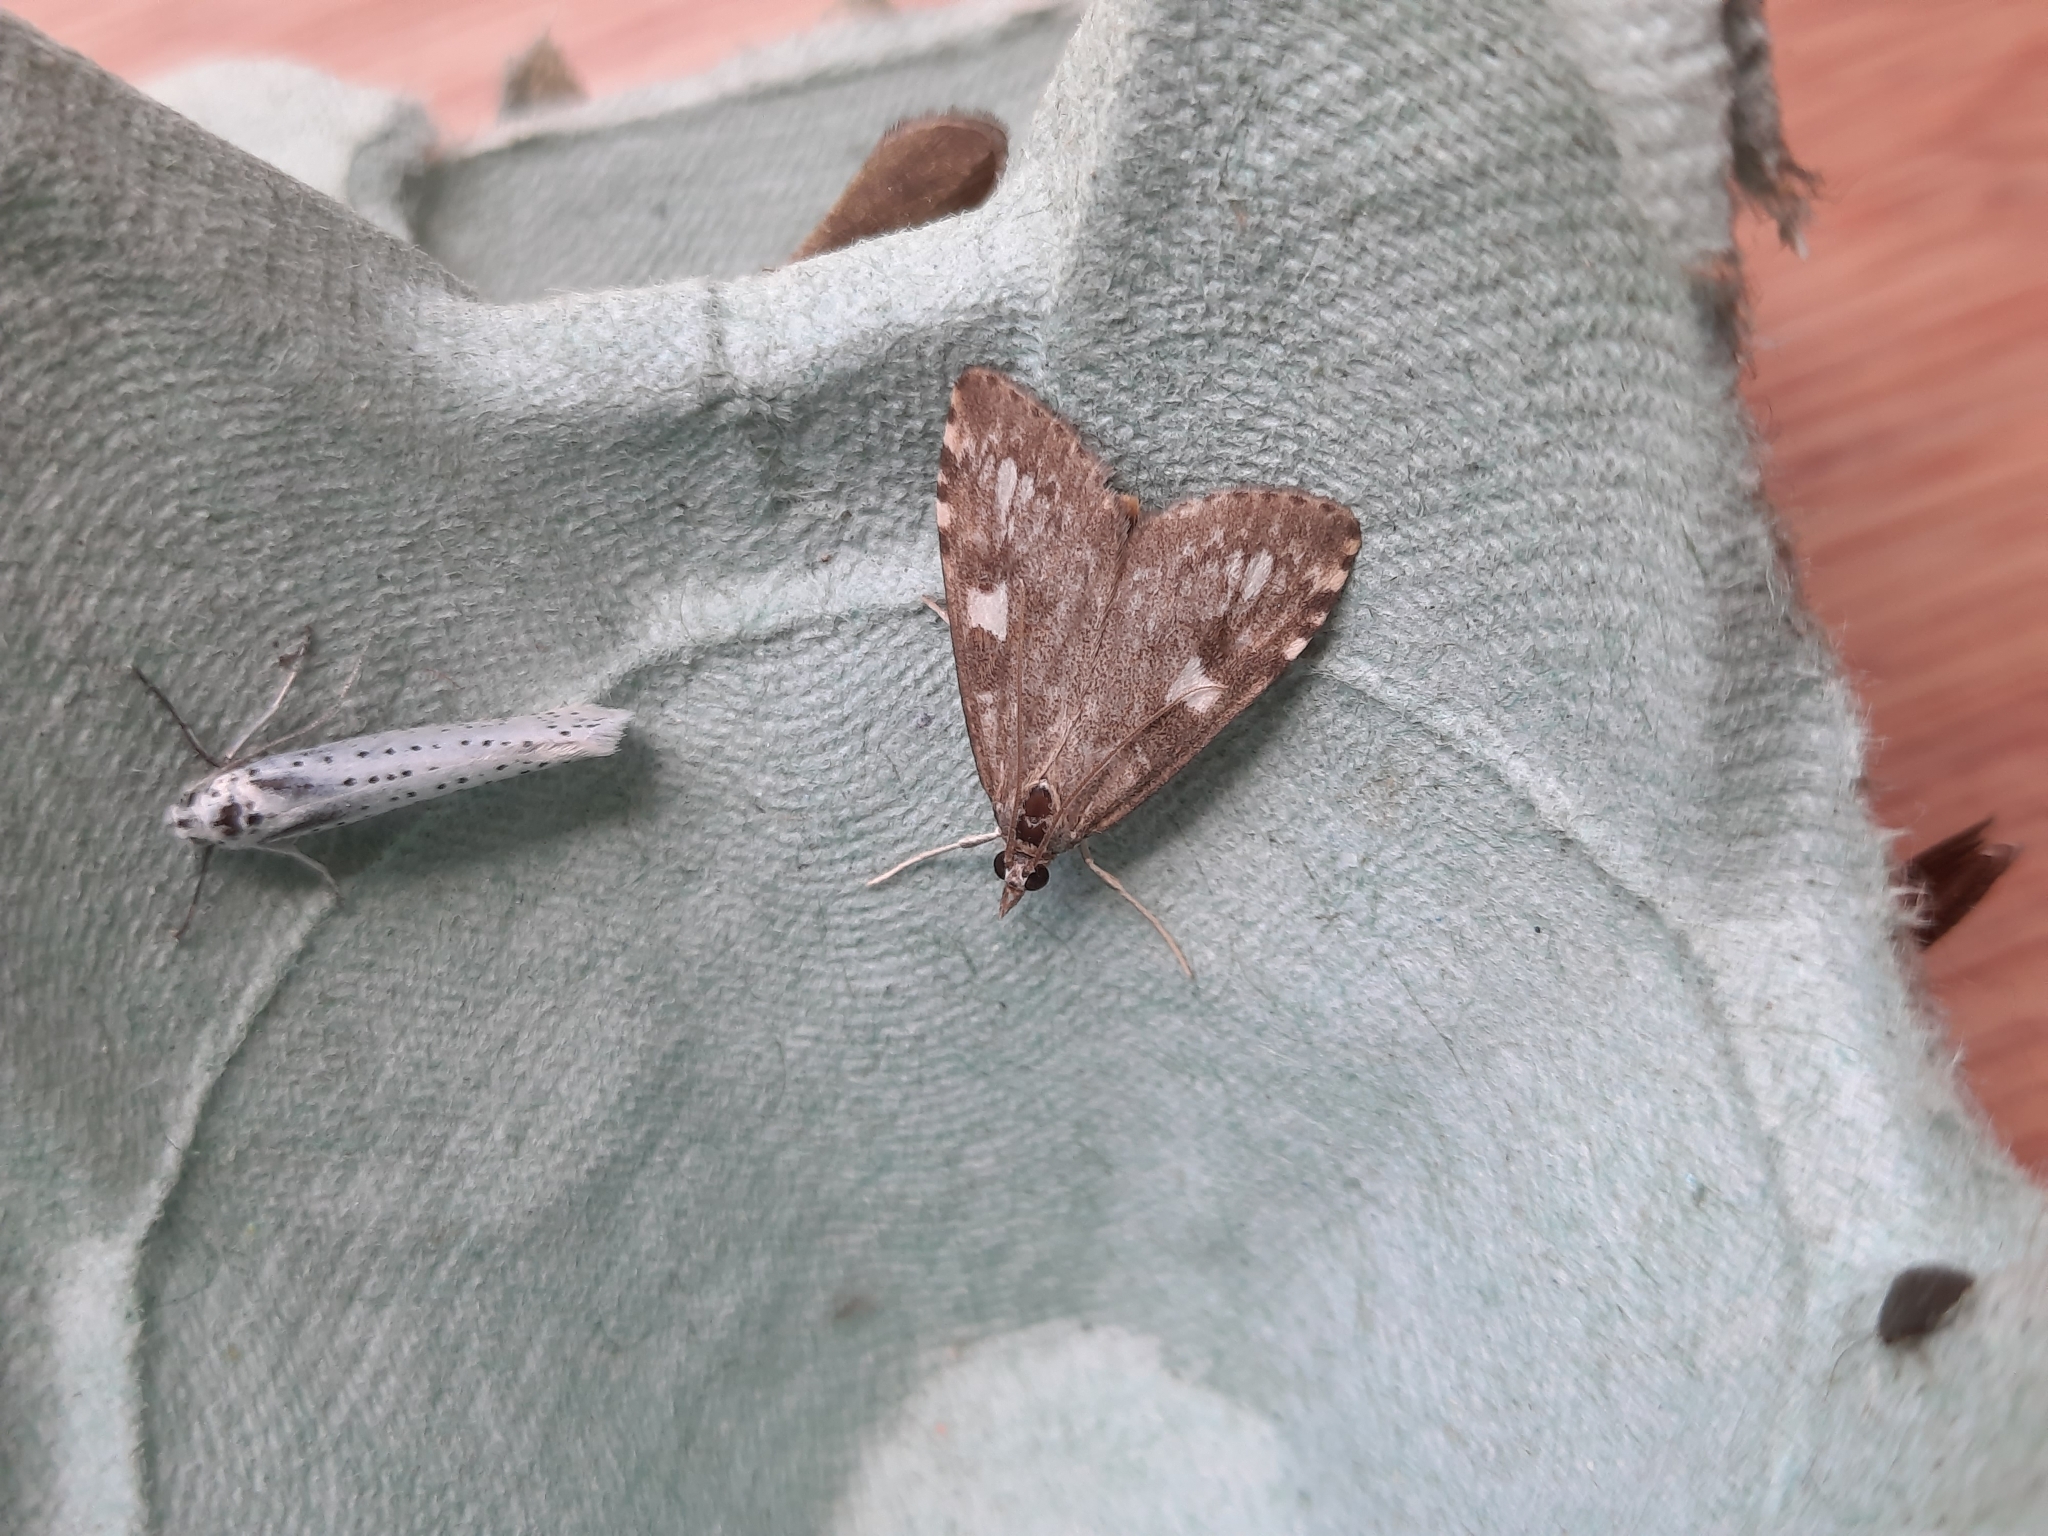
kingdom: Animalia
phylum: Arthropoda
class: Insecta
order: Lepidoptera
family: Crambidae
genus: Udea
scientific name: Udea olivalis
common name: Olive pearl
